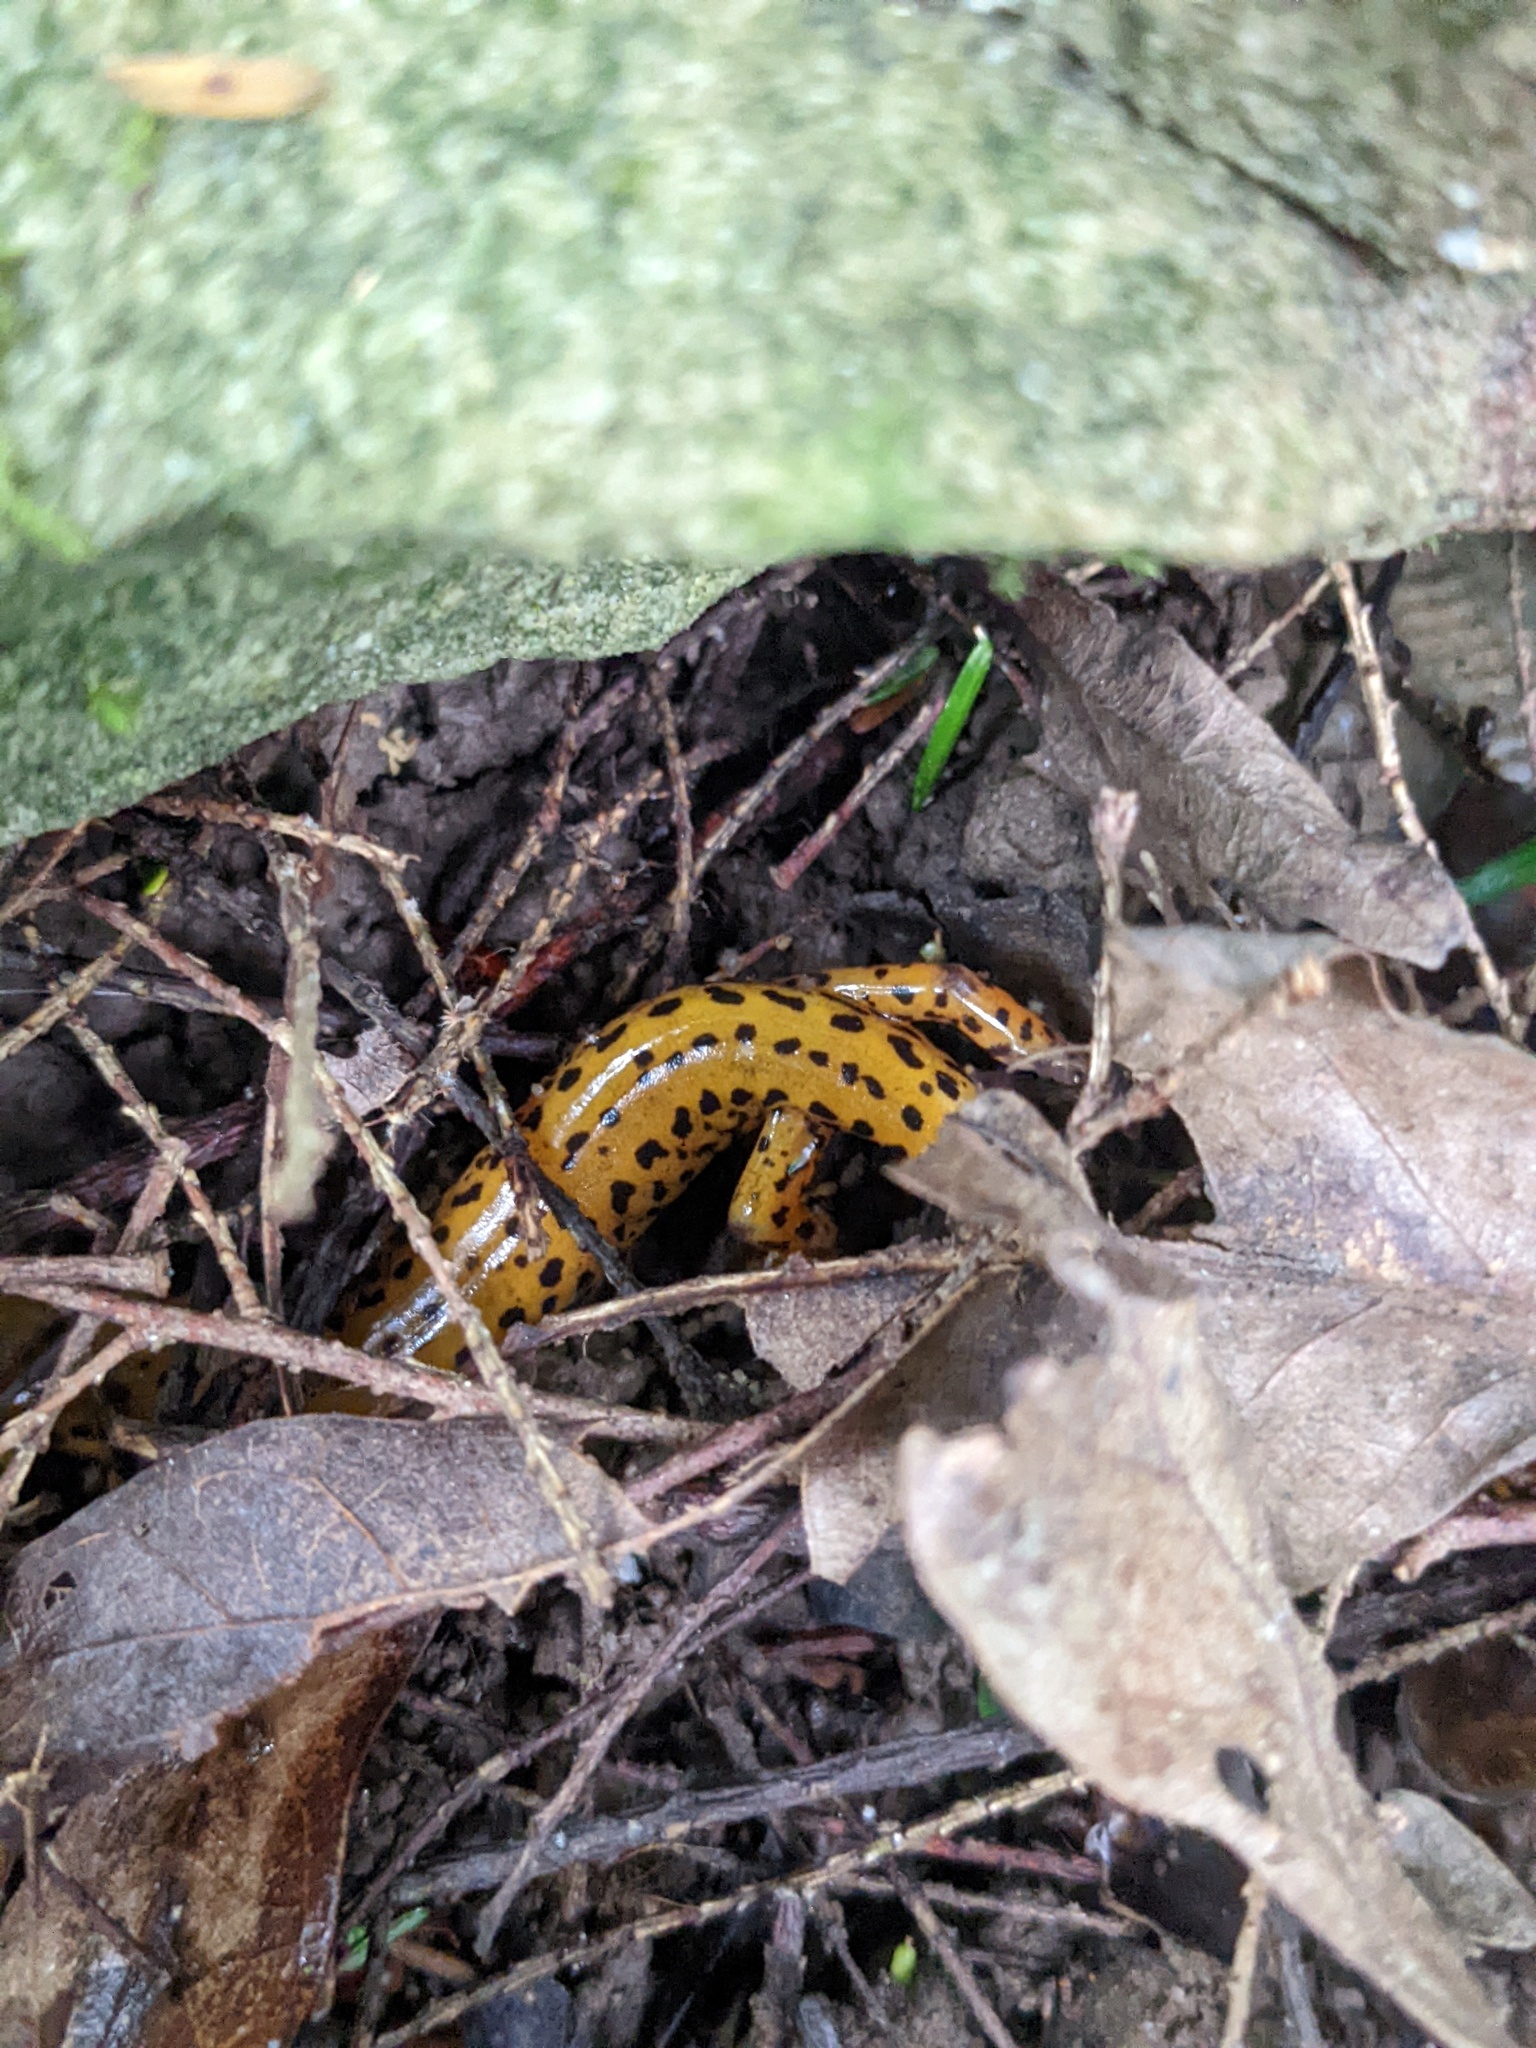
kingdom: Animalia
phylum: Chordata
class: Amphibia
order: Caudata
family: Plethodontidae
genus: Eurycea
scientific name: Eurycea longicauda
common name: Long-tailed salamander
